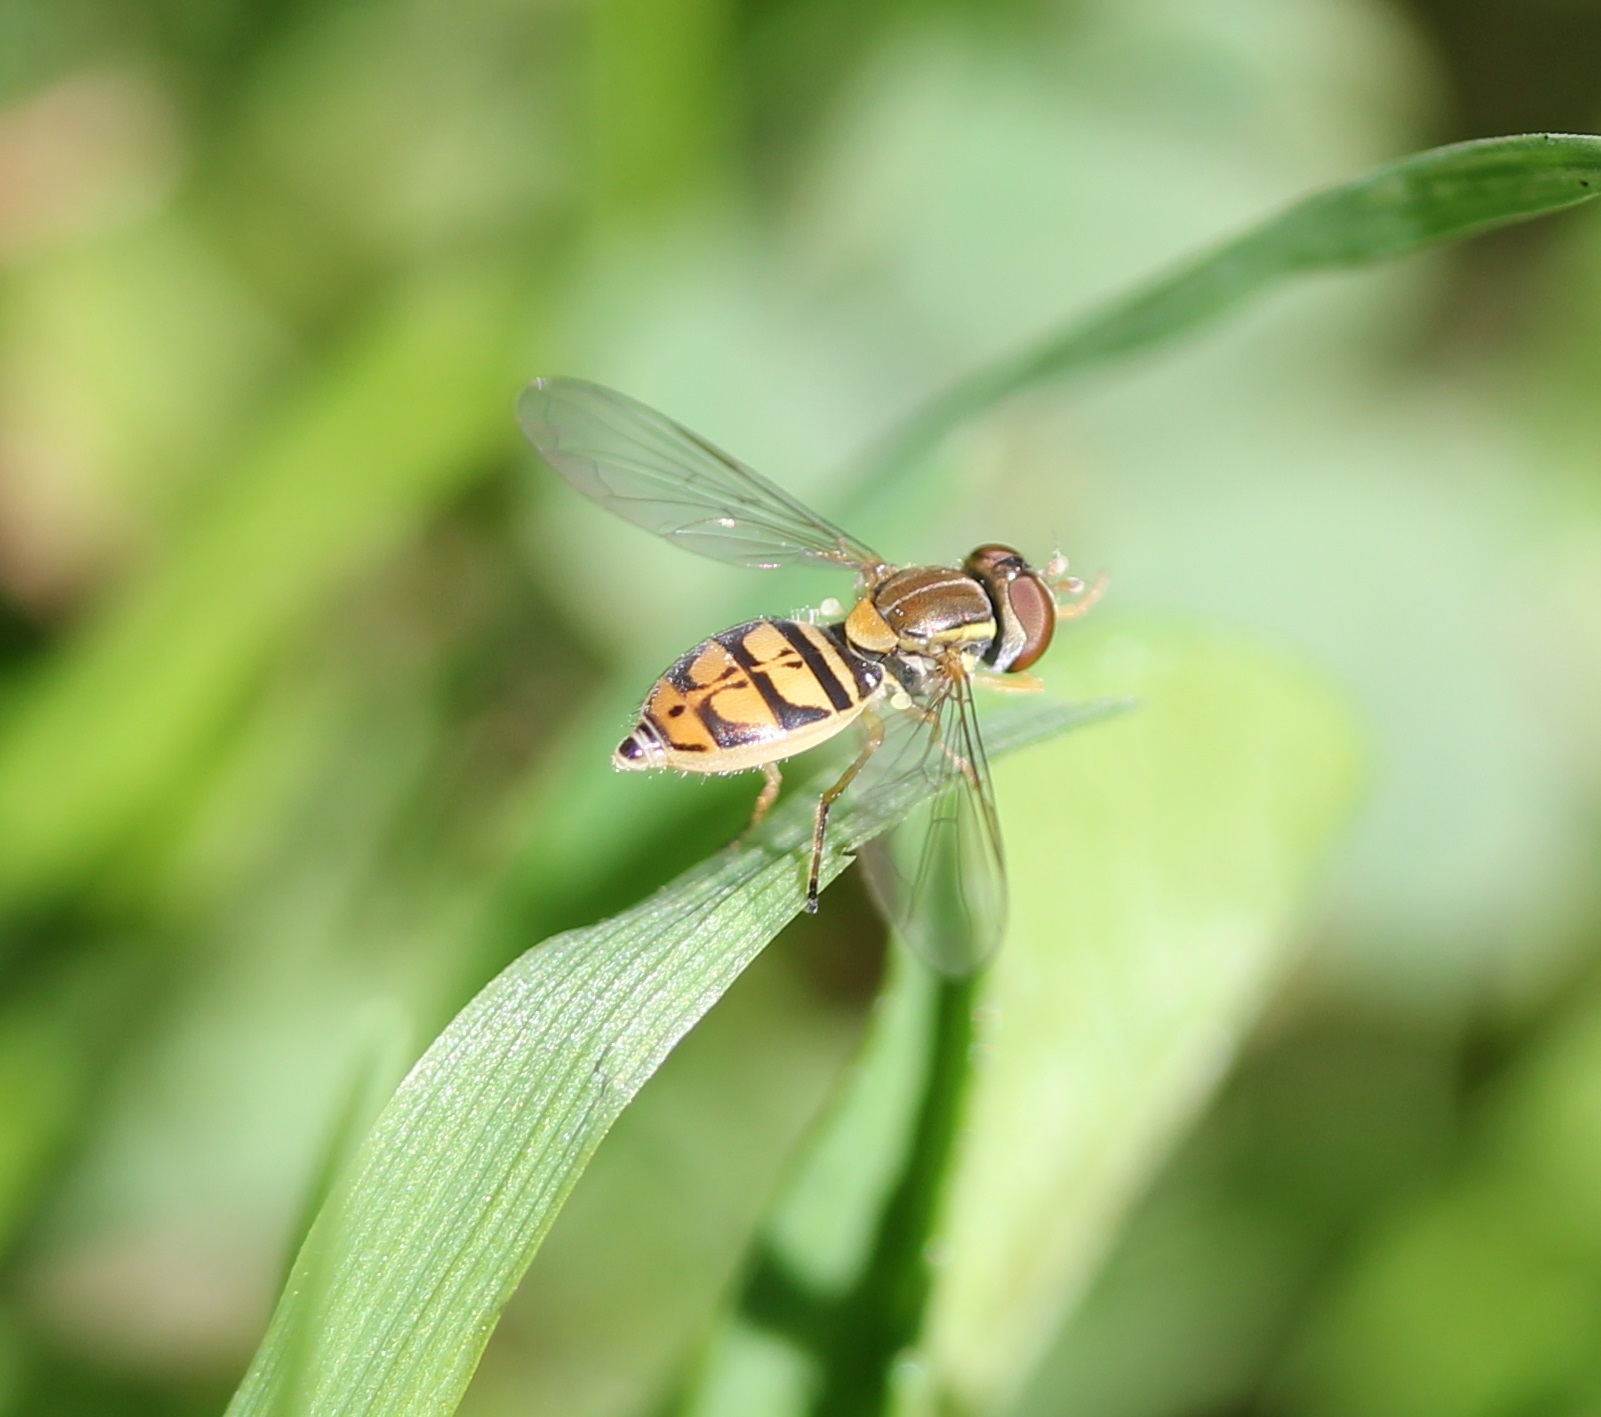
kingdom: Animalia
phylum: Arthropoda
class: Insecta
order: Diptera
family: Syrphidae
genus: Toxomerus
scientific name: Toxomerus marginatus
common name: Syrphid fly
